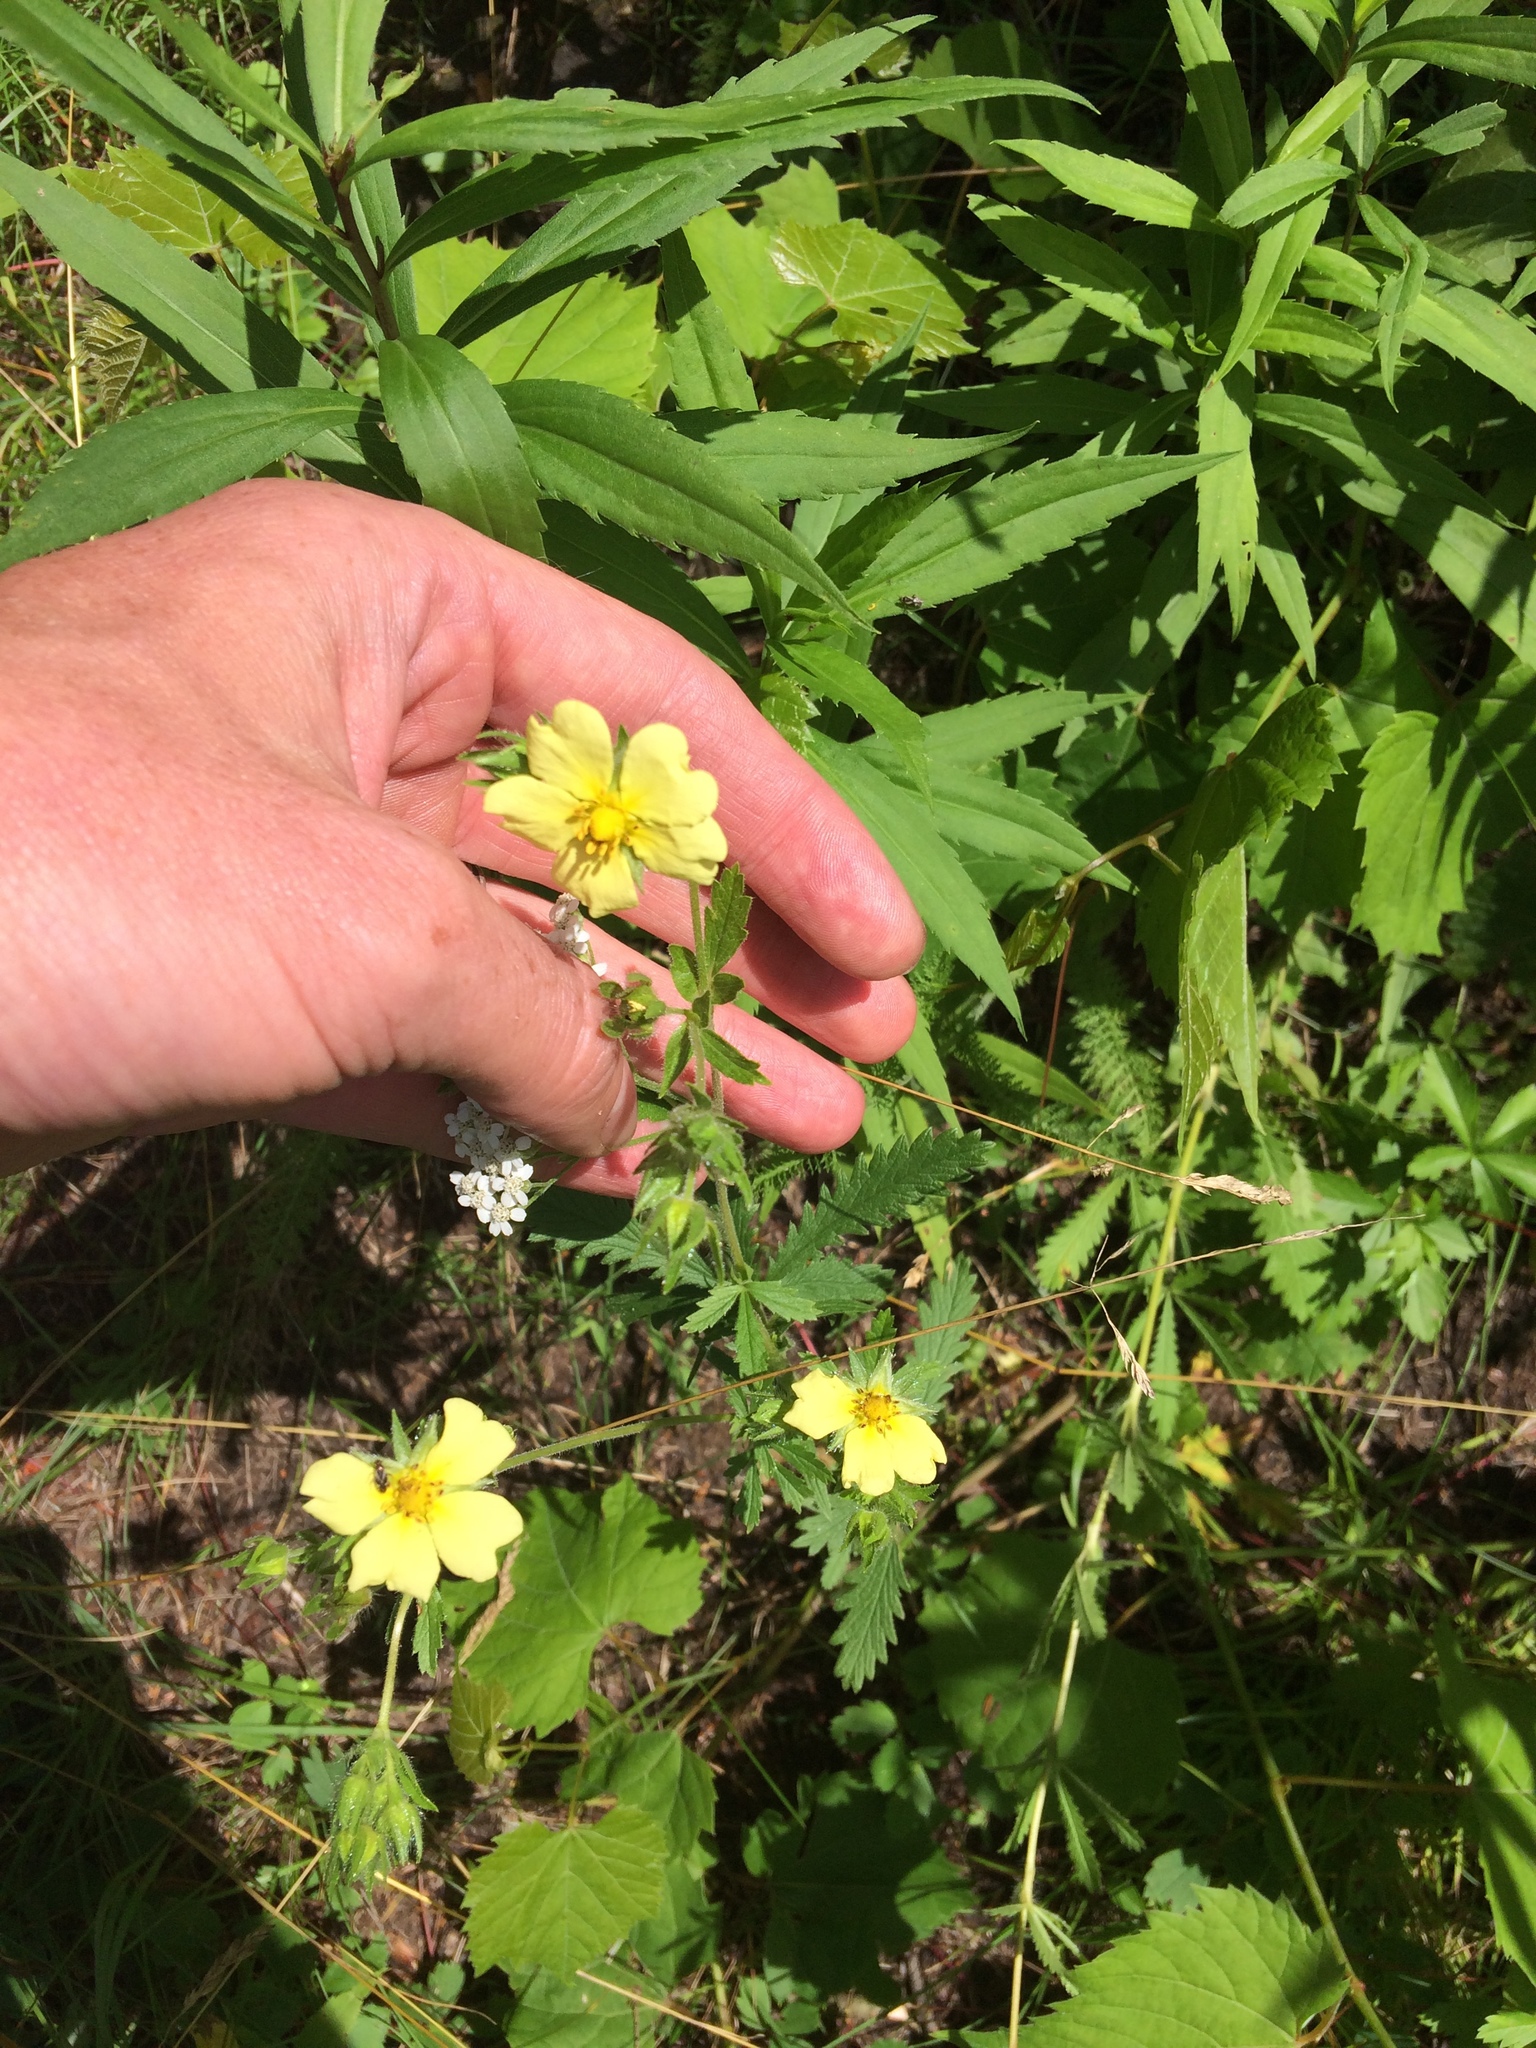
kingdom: Plantae
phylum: Tracheophyta
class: Magnoliopsida
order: Rosales
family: Rosaceae
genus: Potentilla
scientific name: Potentilla recta
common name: Sulphur cinquefoil
